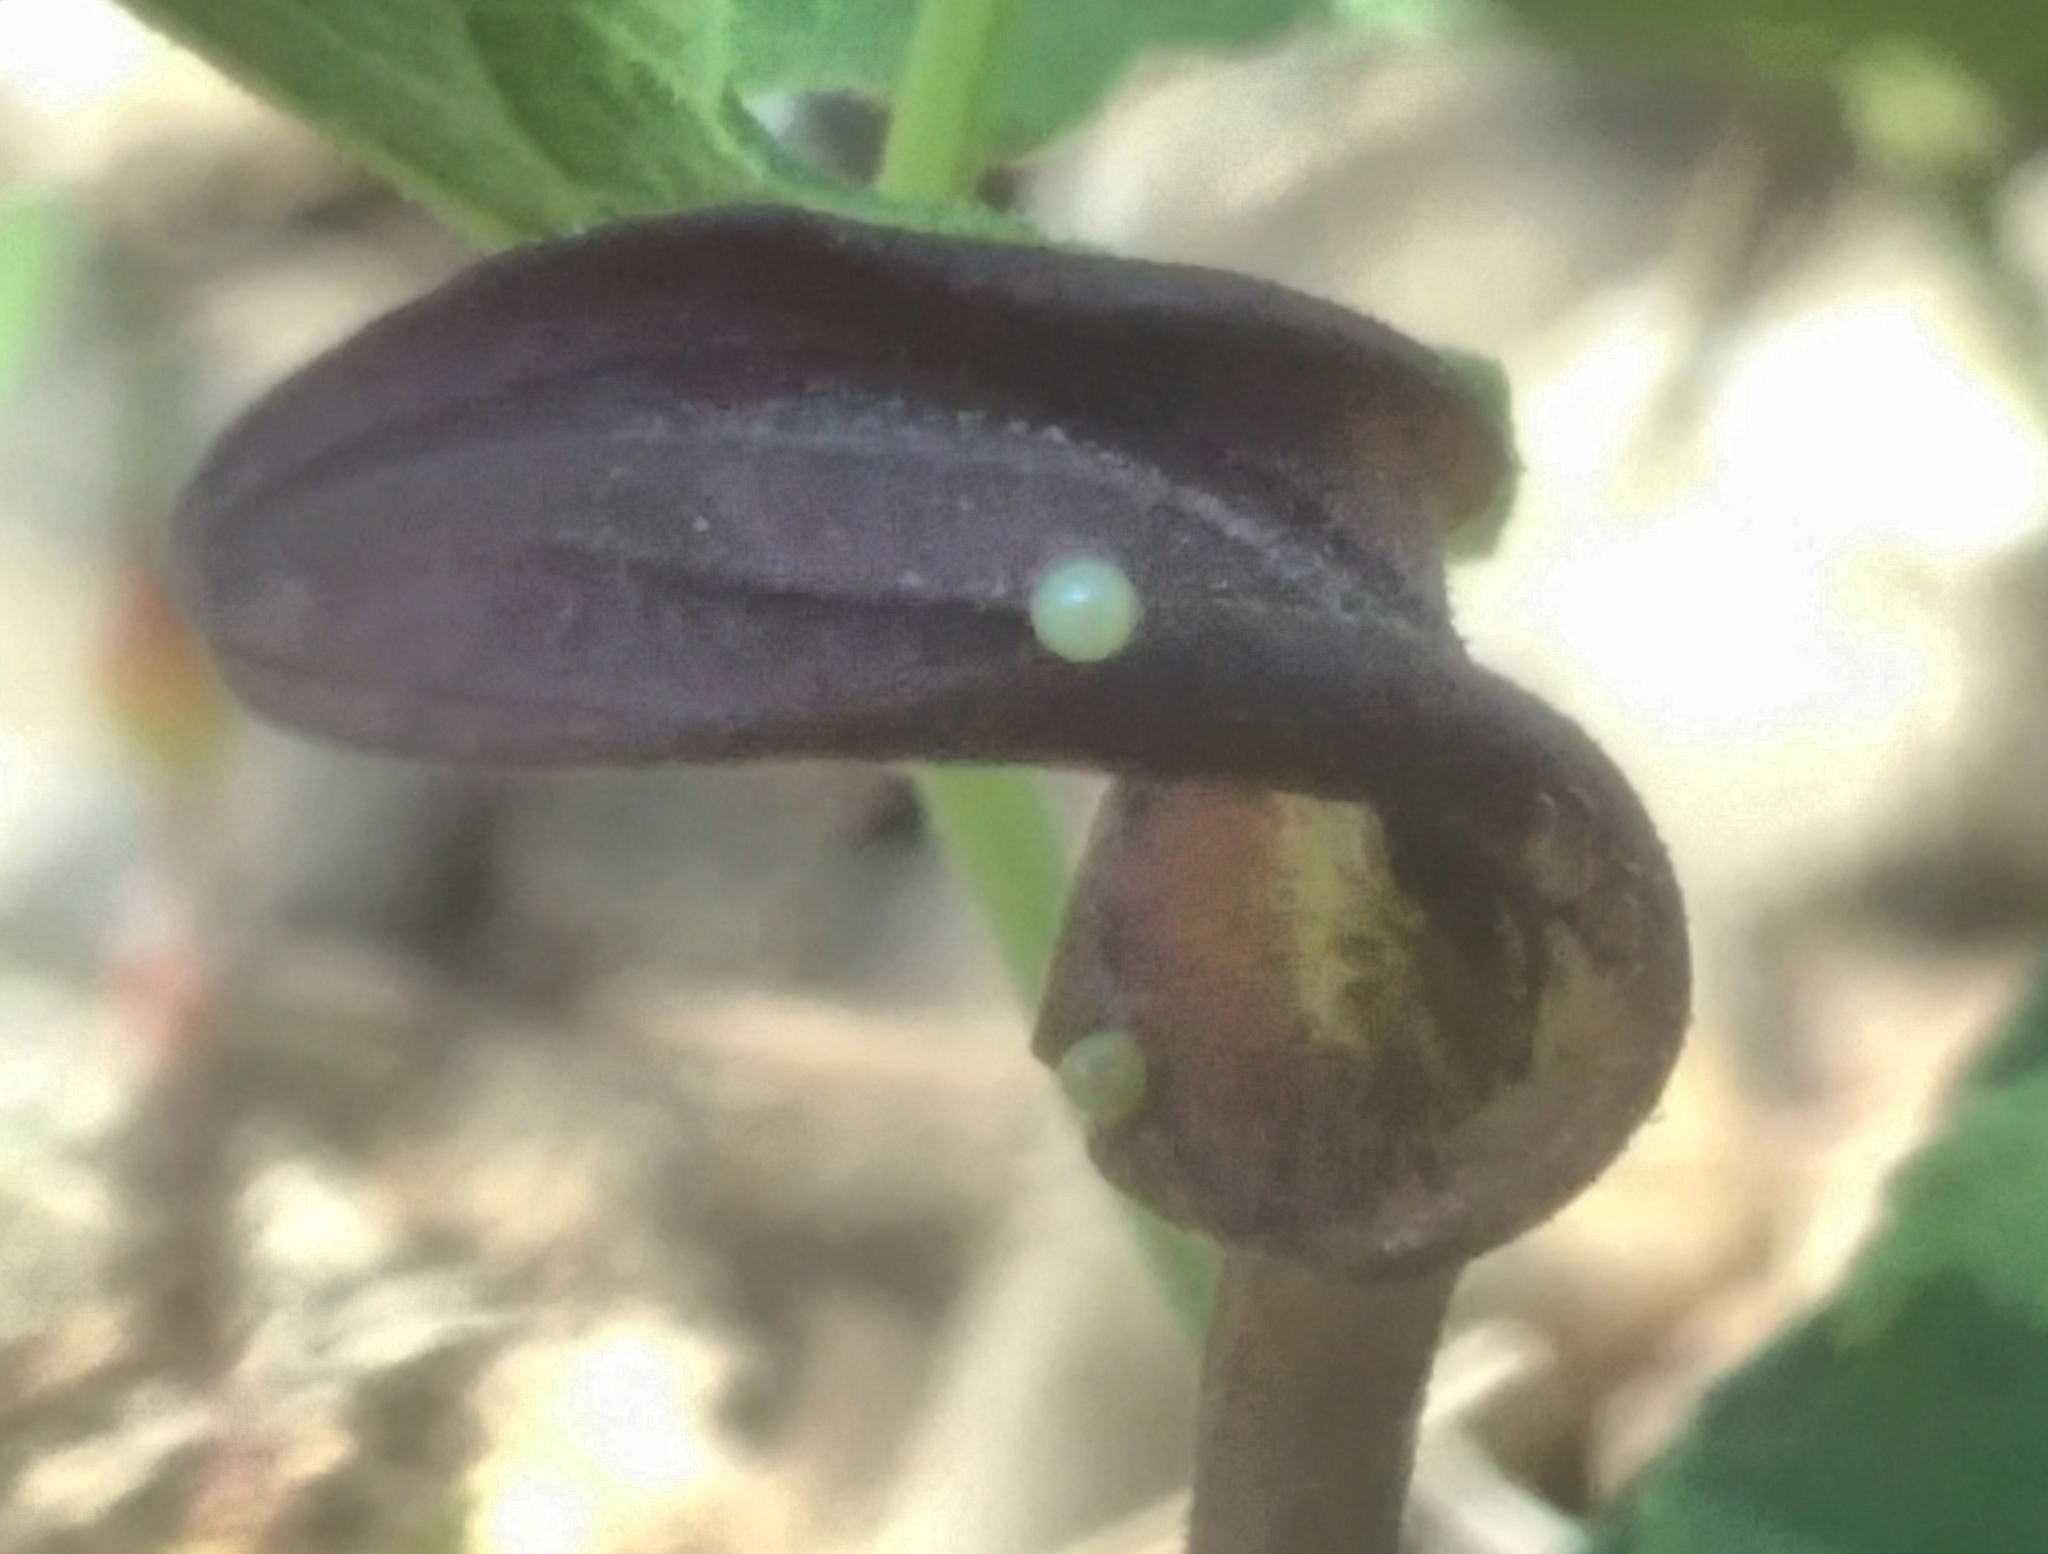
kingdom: Animalia
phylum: Arthropoda
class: Insecta
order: Lepidoptera
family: Papilionidae
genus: Zerynthia
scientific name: Zerynthia rumina
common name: Spanish festoon
